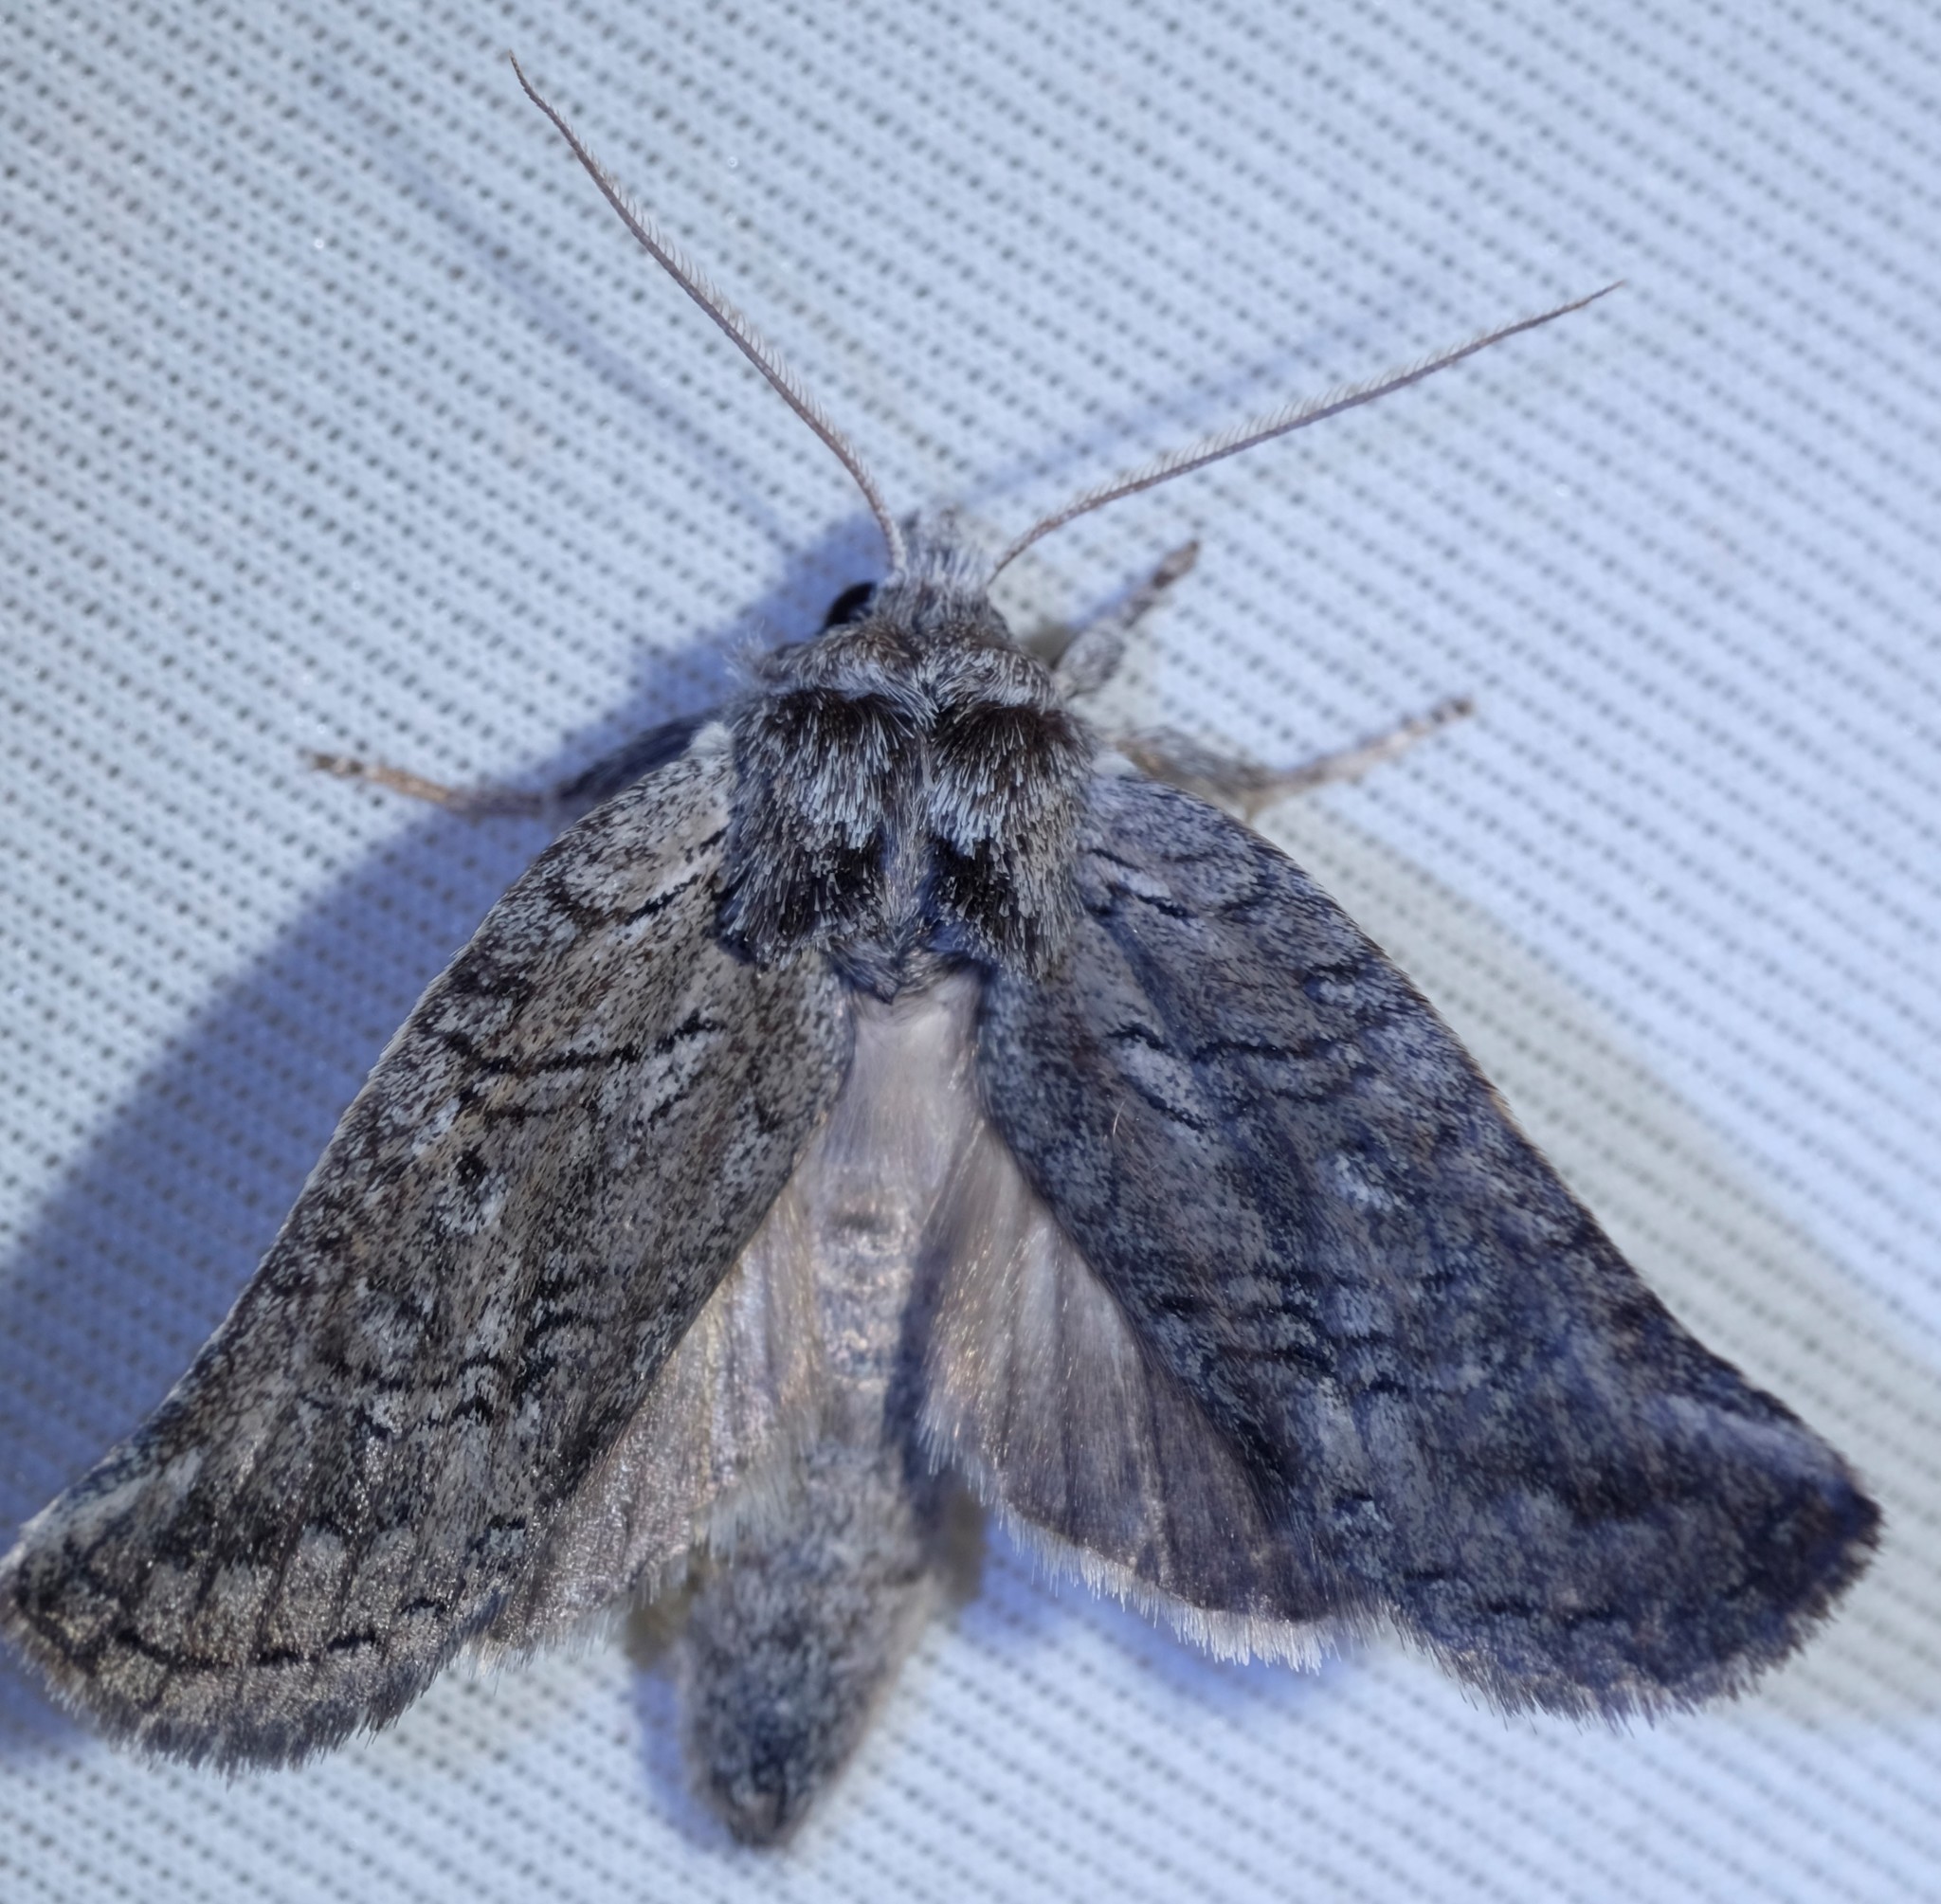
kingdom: Animalia
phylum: Arthropoda
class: Insecta
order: Lepidoptera
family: Notodontidae
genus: Scythrophanes
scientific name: Scythrophanes stenoptera
